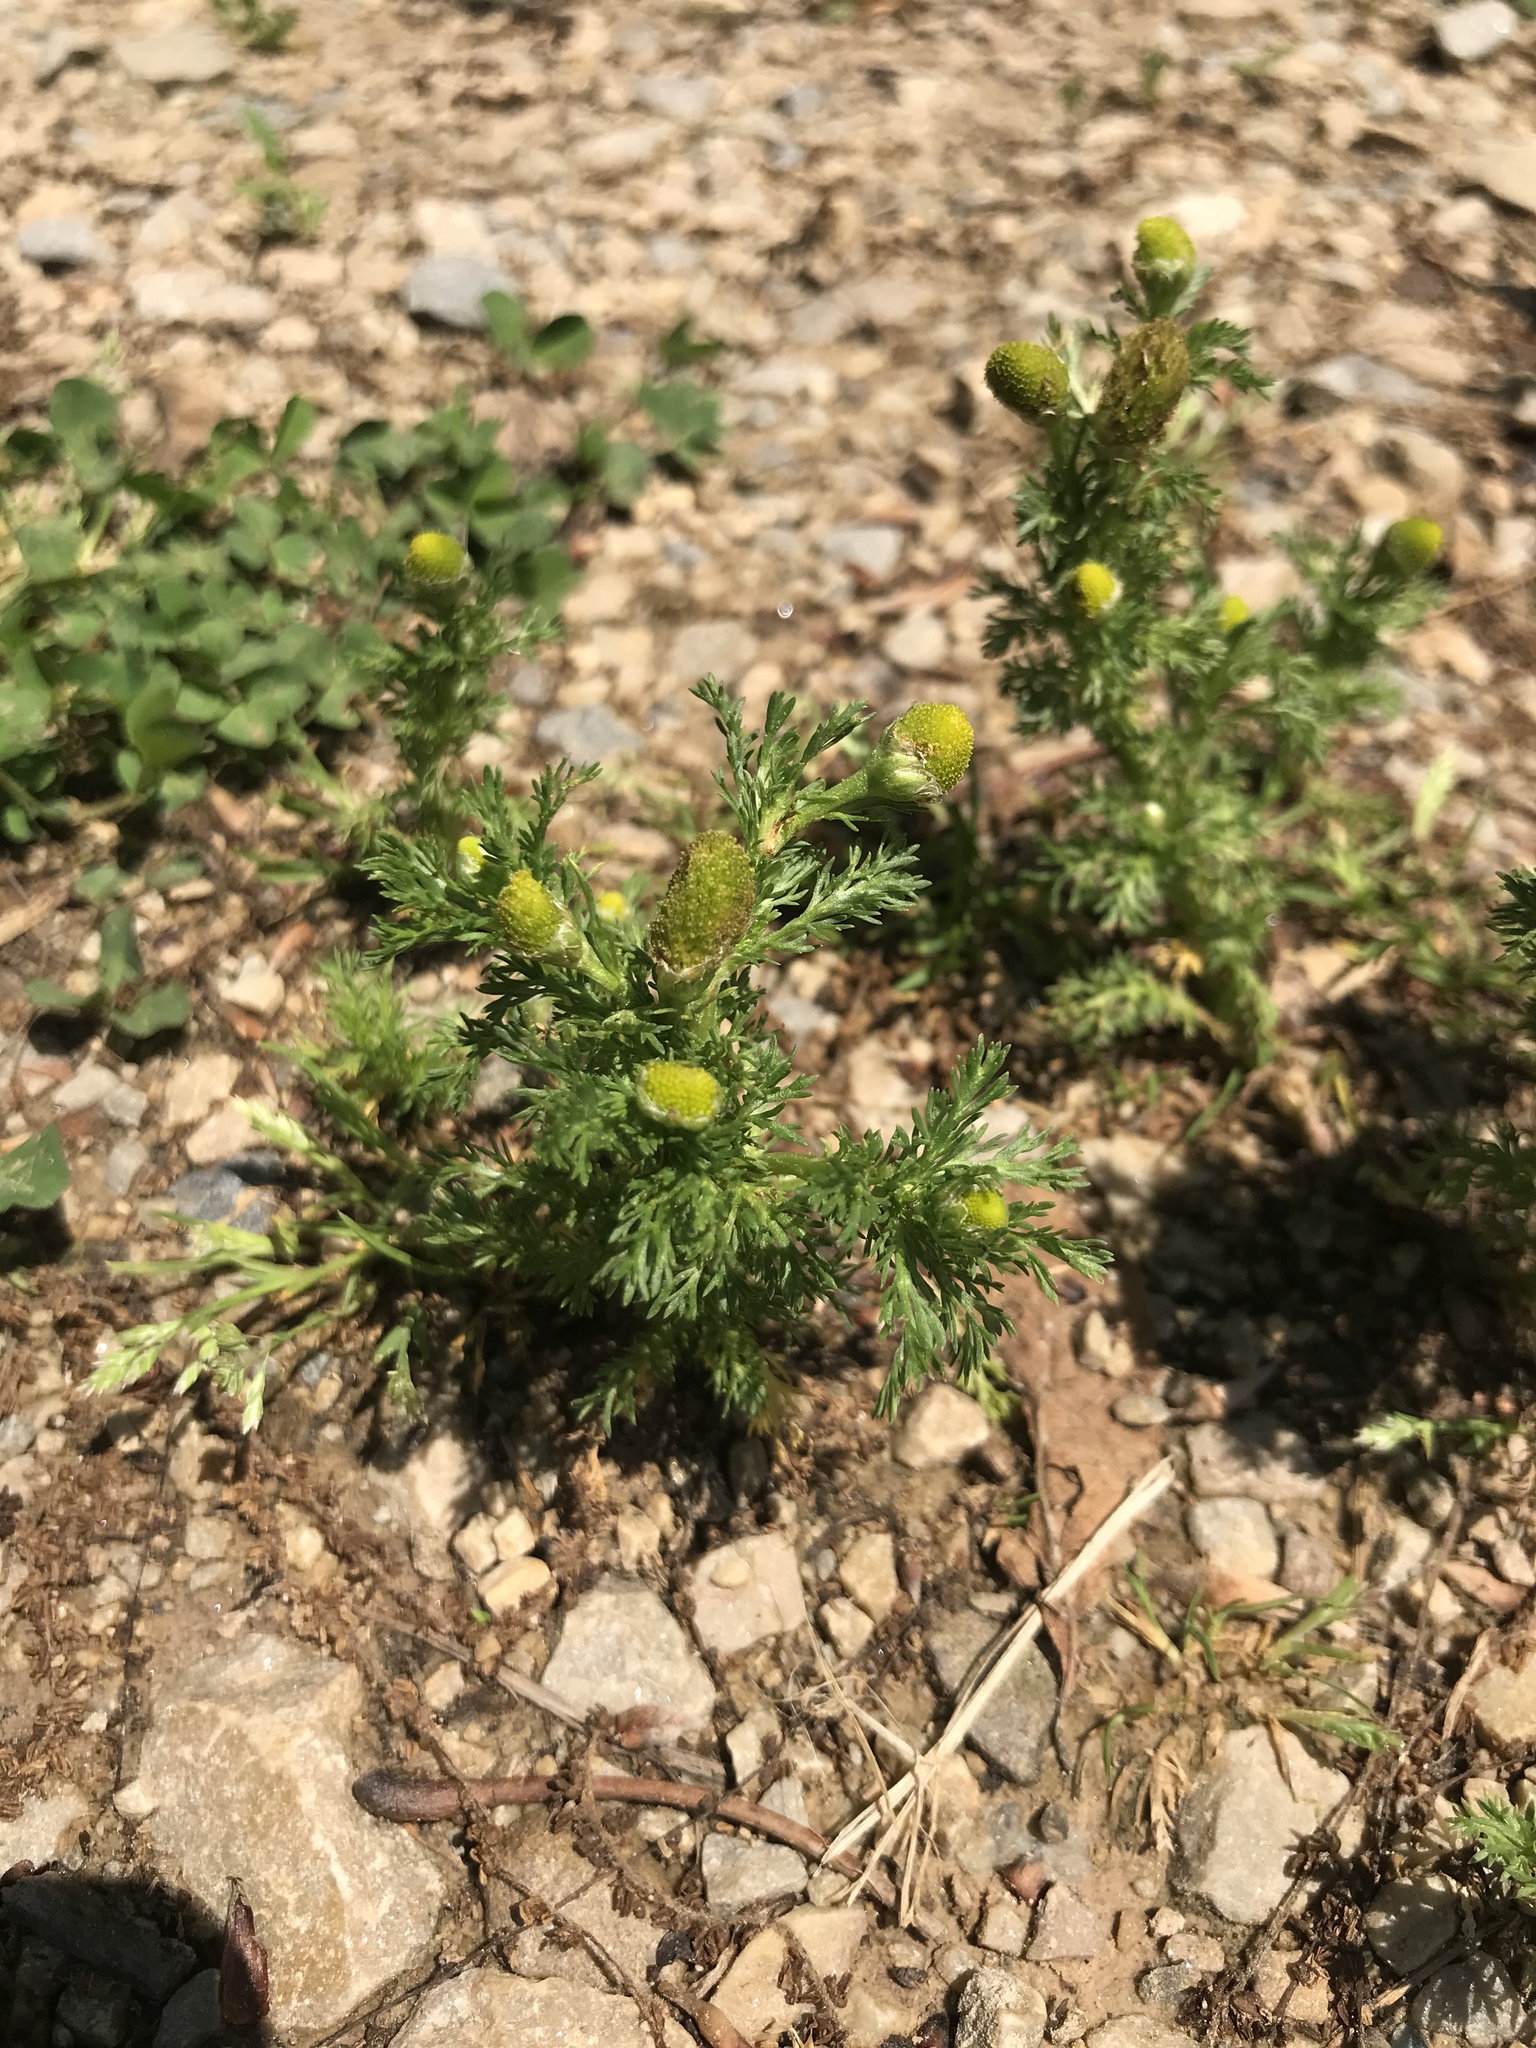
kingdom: Plantae
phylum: Tracheophyta
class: Magnoliopsida
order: Asterales
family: Asteraceae
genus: Matricaria
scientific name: Matricaria discoidea
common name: Disc mayweed
